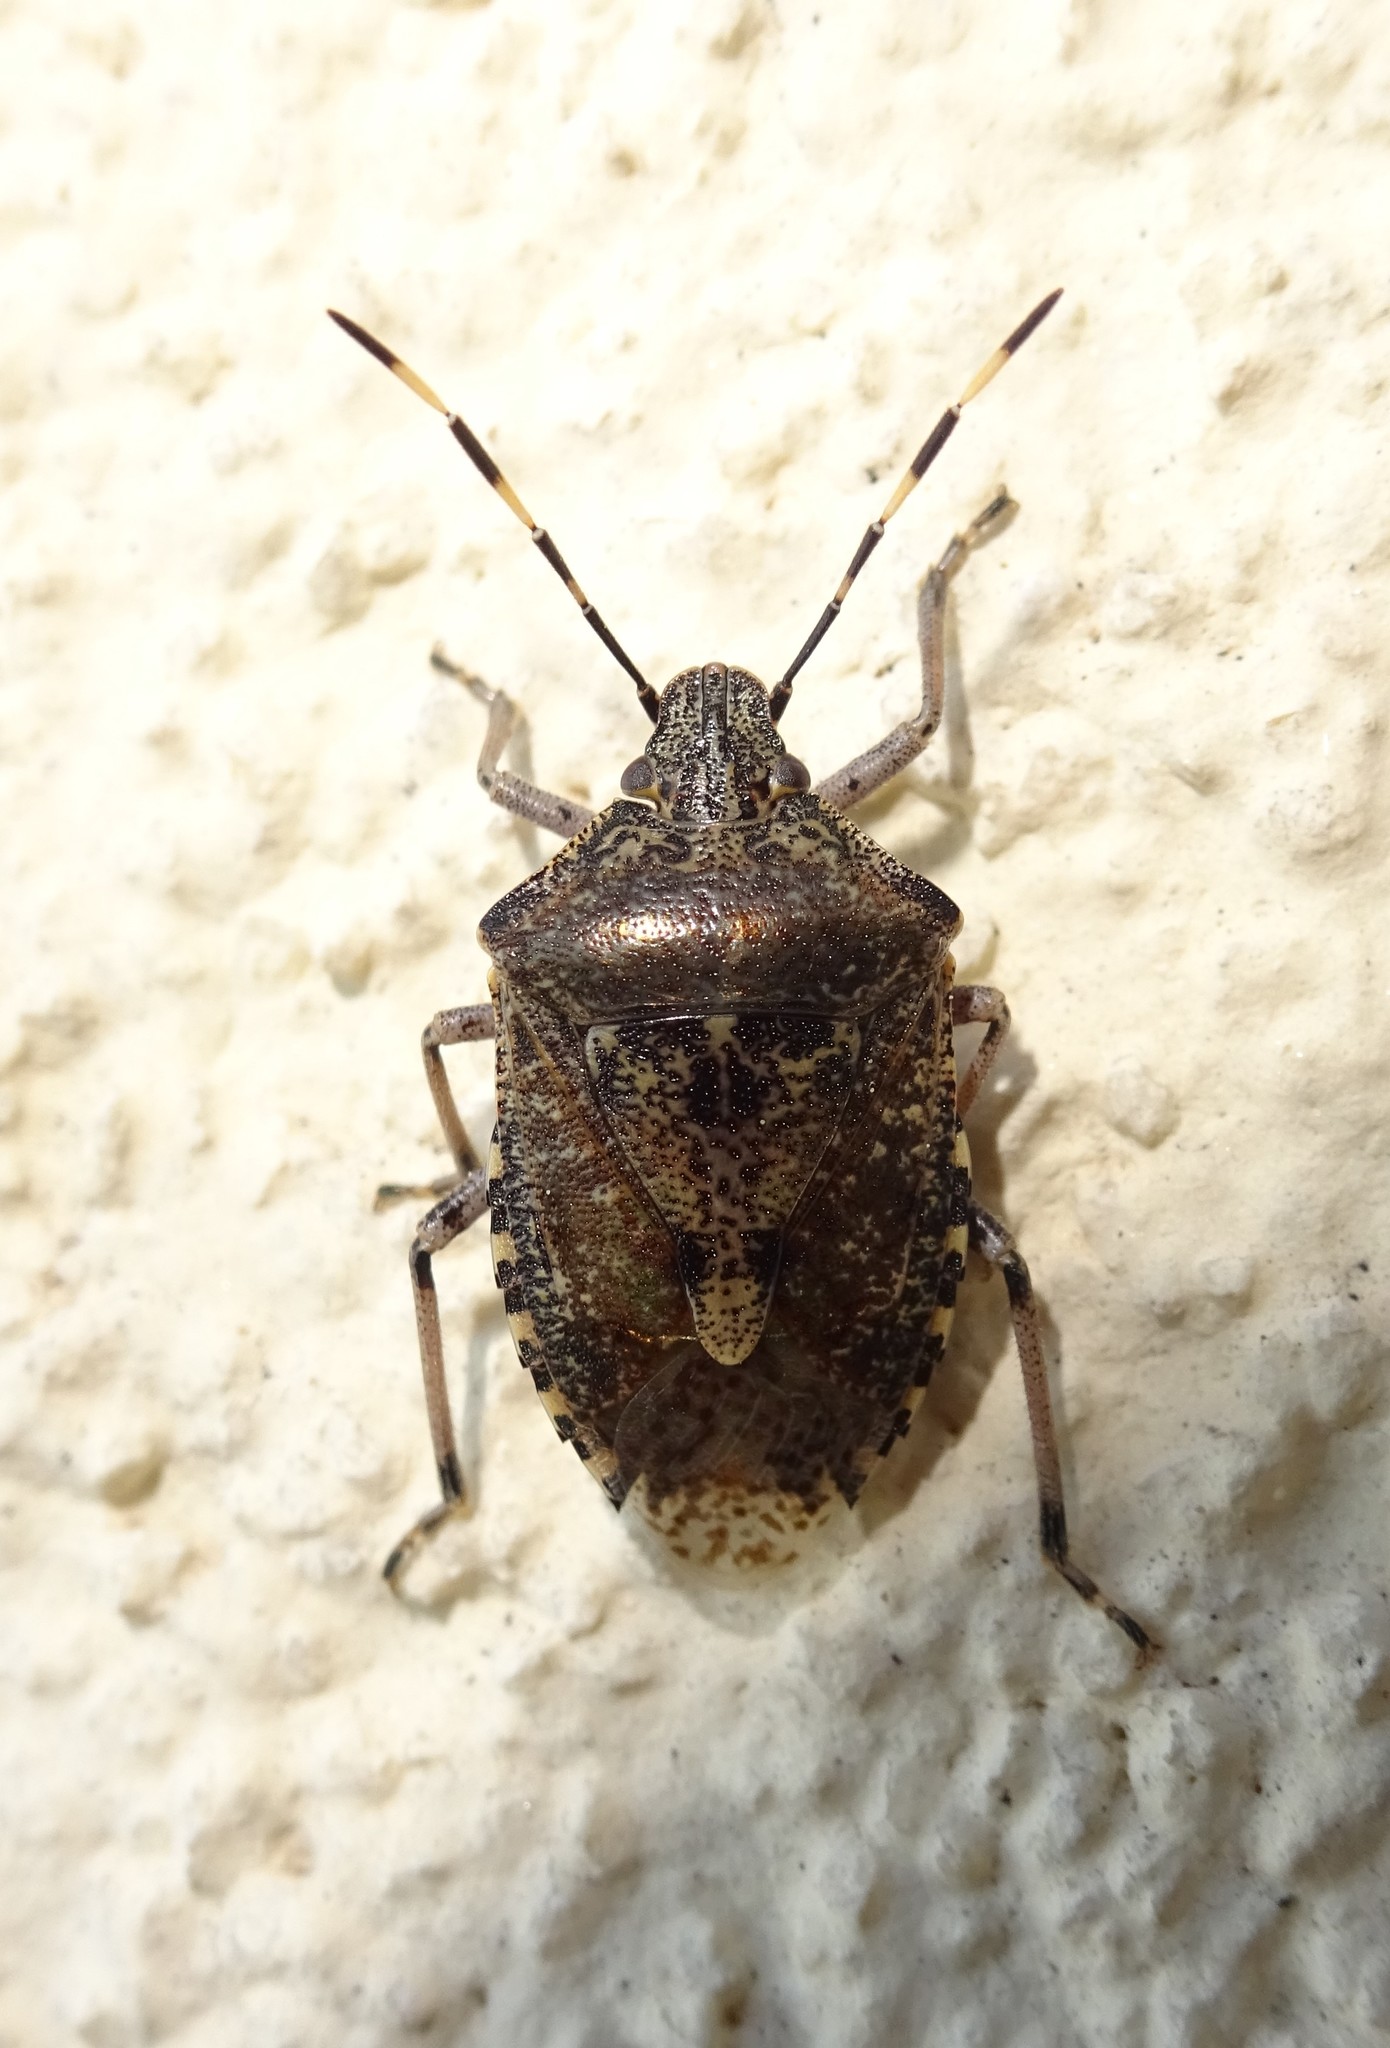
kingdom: Animalia
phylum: Arthropoda
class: Insecta
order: Hemiptera
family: Pentatomidae
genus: Rhaphigaster
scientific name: Rhaphigaster nebulosa
